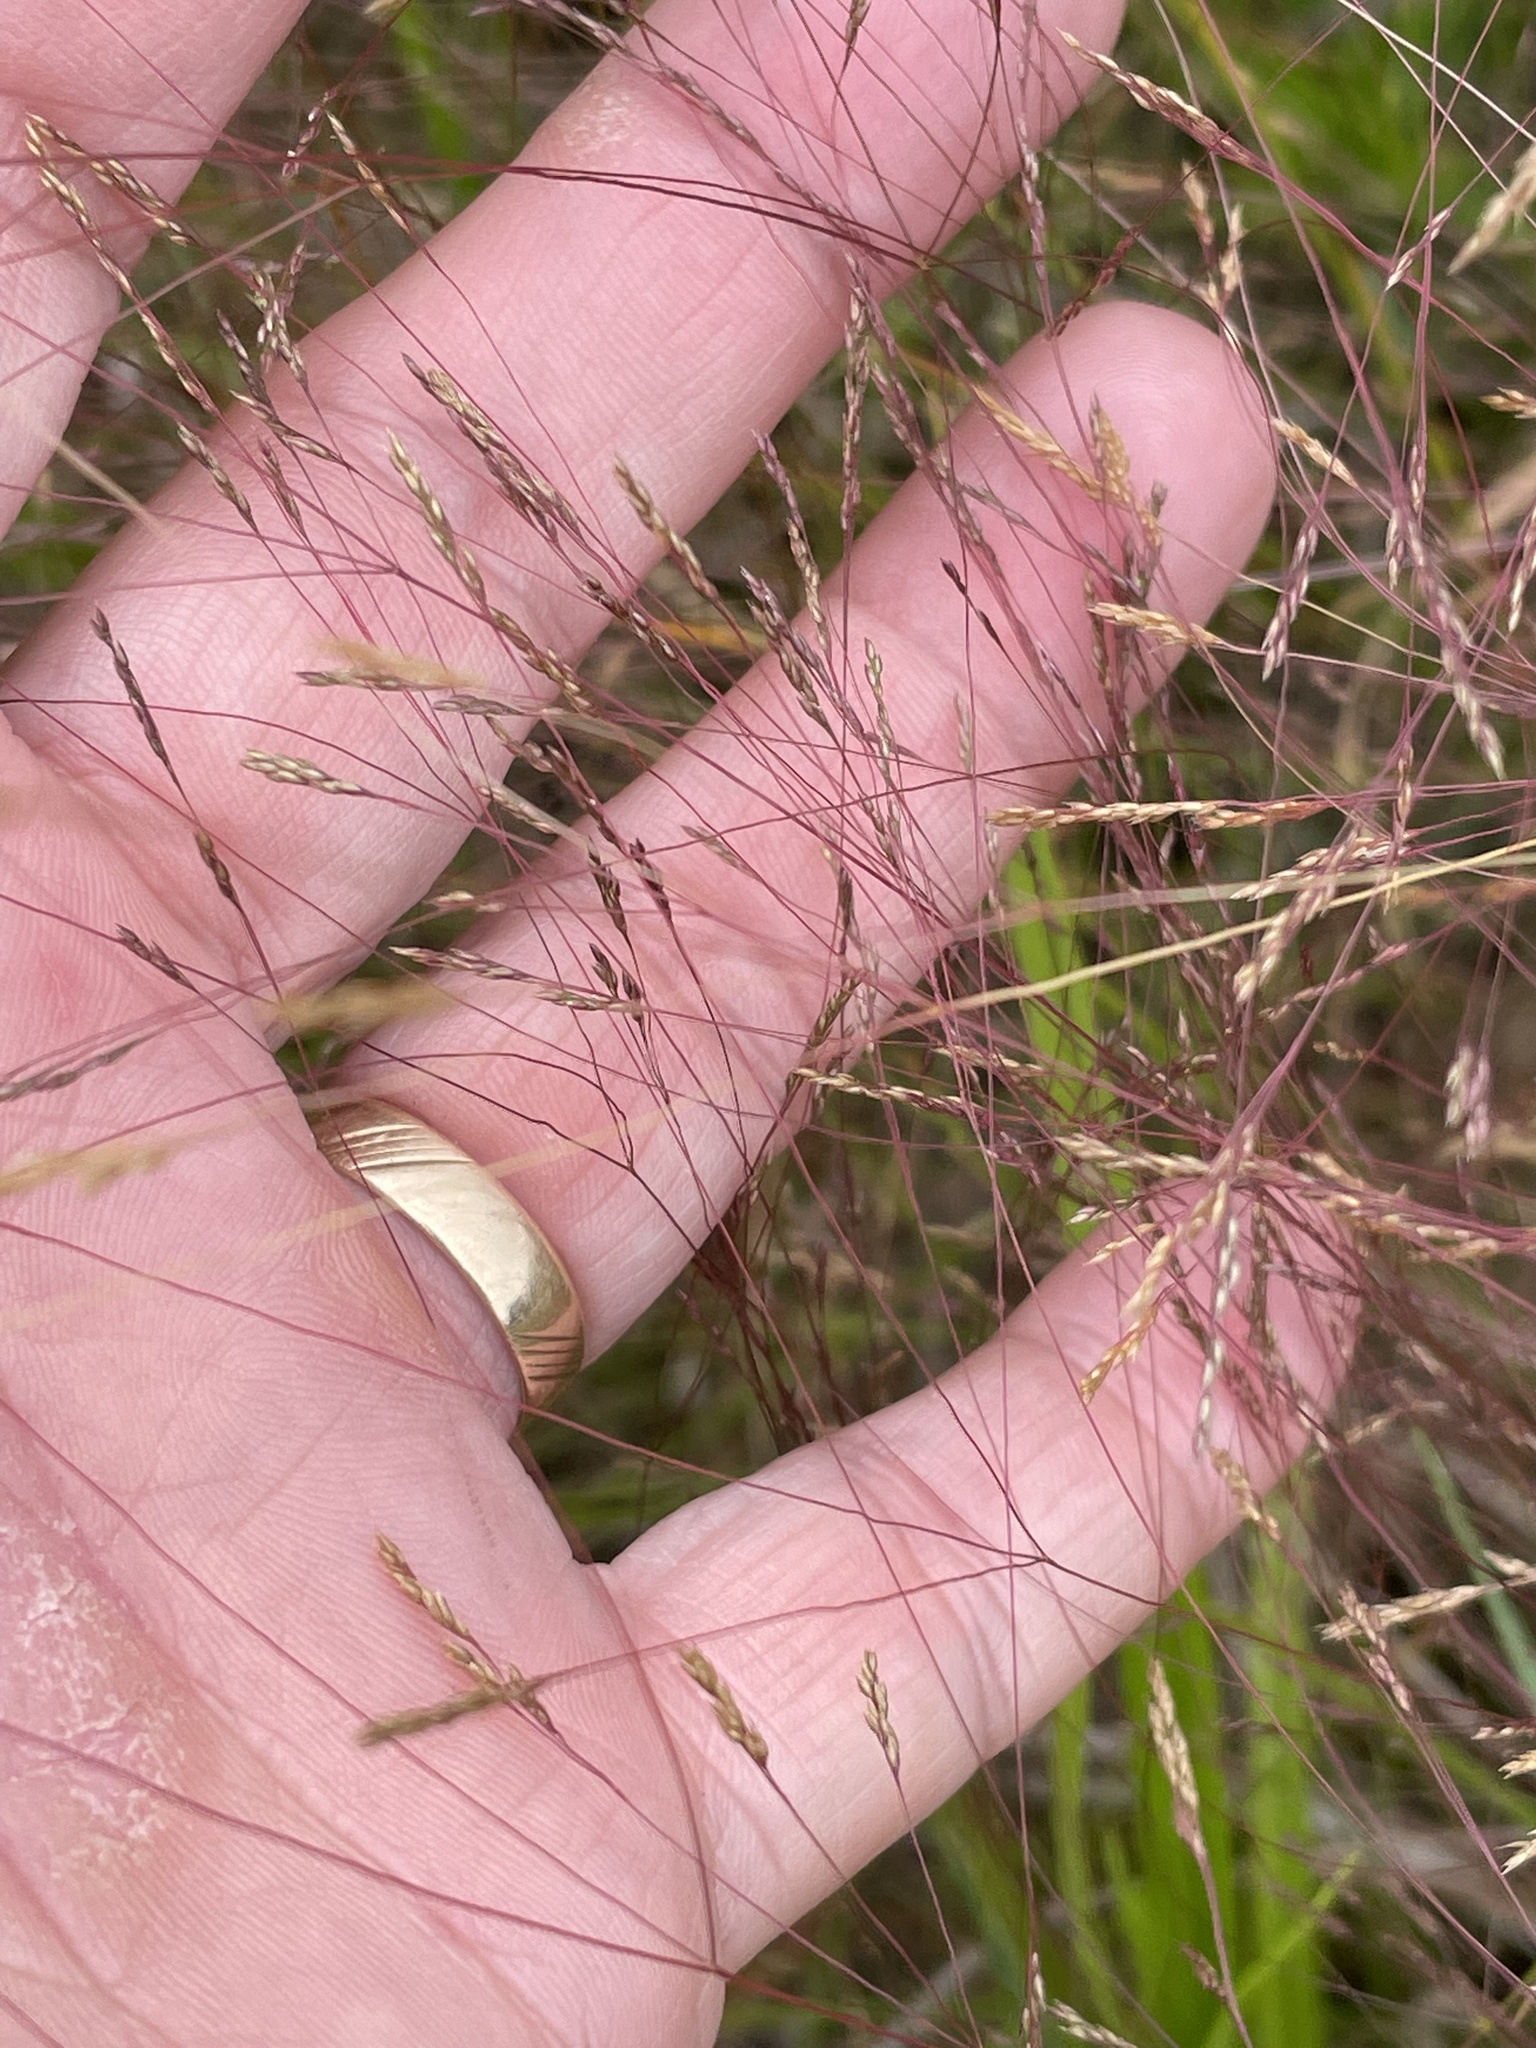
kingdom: Plantae
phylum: Tracheophyta
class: Liliopsida
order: Poales
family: Poaceae
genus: Agrostis
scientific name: Agrostis hyemalis
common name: Small bent
